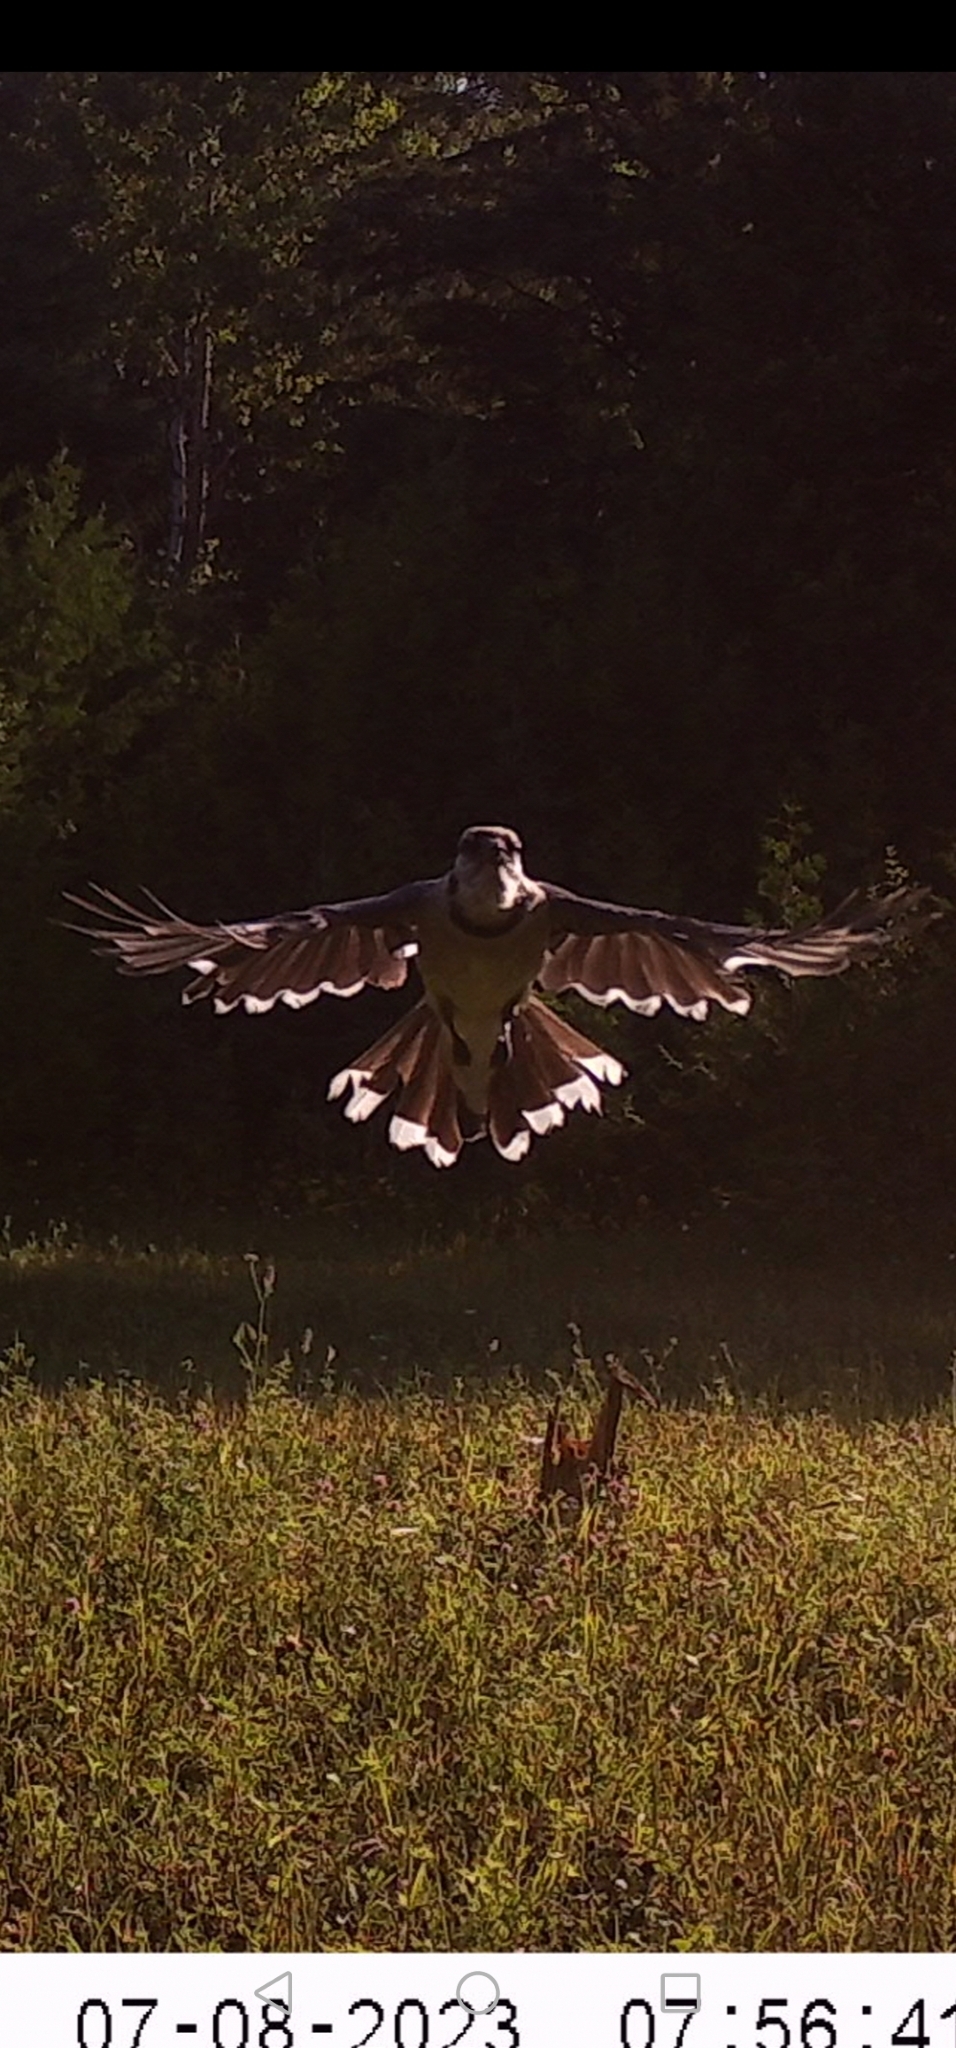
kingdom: Animalia
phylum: Chordata
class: Aves
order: Passeriformes
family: Corvidae
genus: Cyanocitta
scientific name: Cyanocitta cristata
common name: Blue jay
